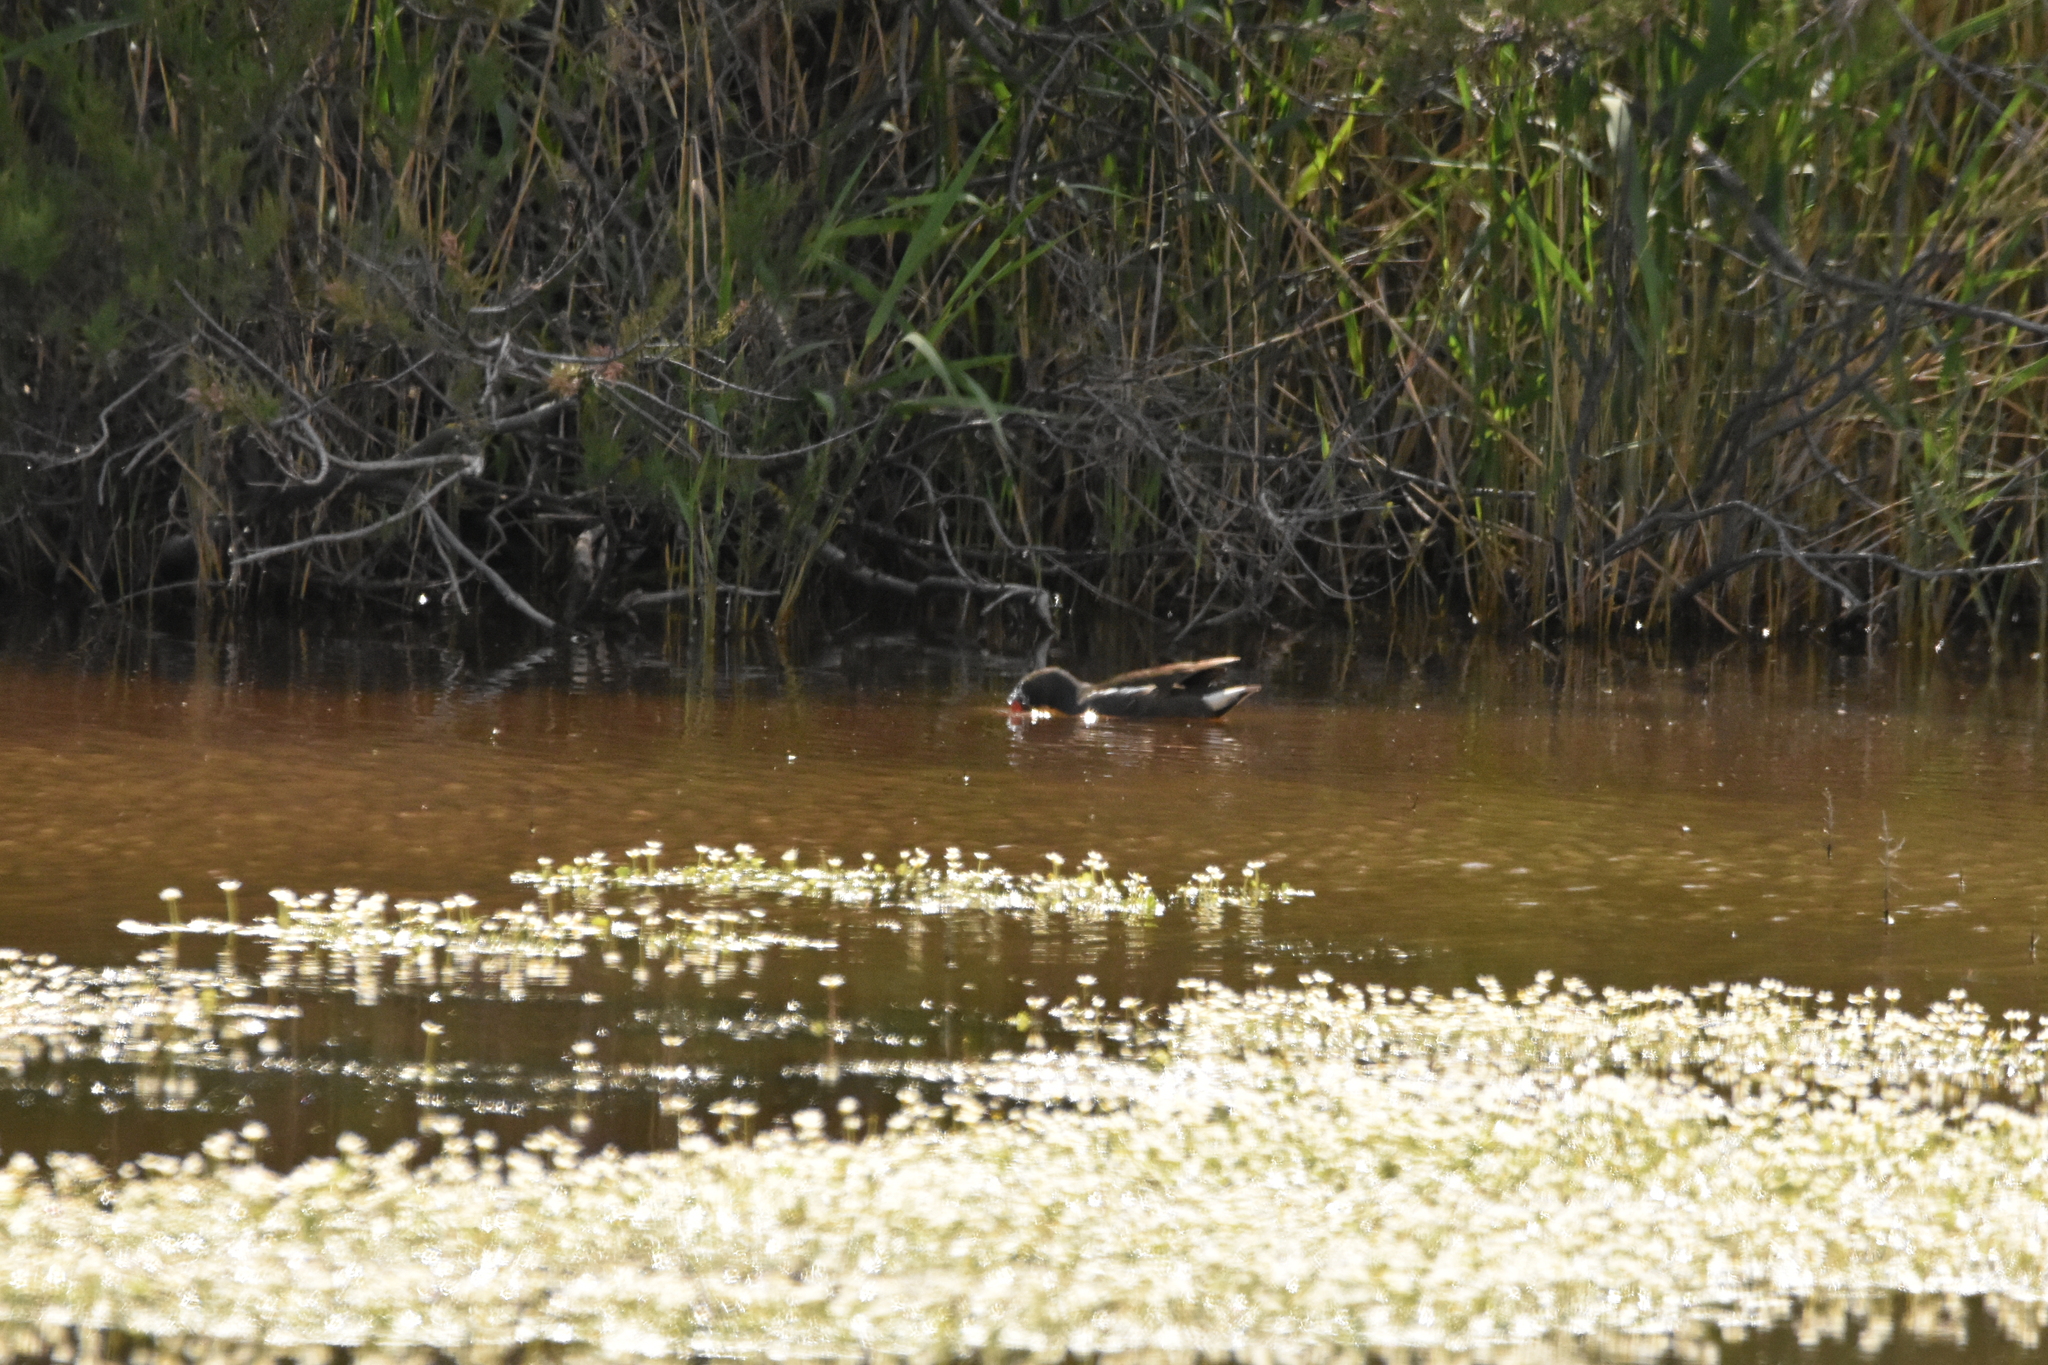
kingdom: Animalia
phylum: Chordata
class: Aves
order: Gruiformes
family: Rallidae
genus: Gallinula
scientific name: Gallinula chloropus
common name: Common moorhen
